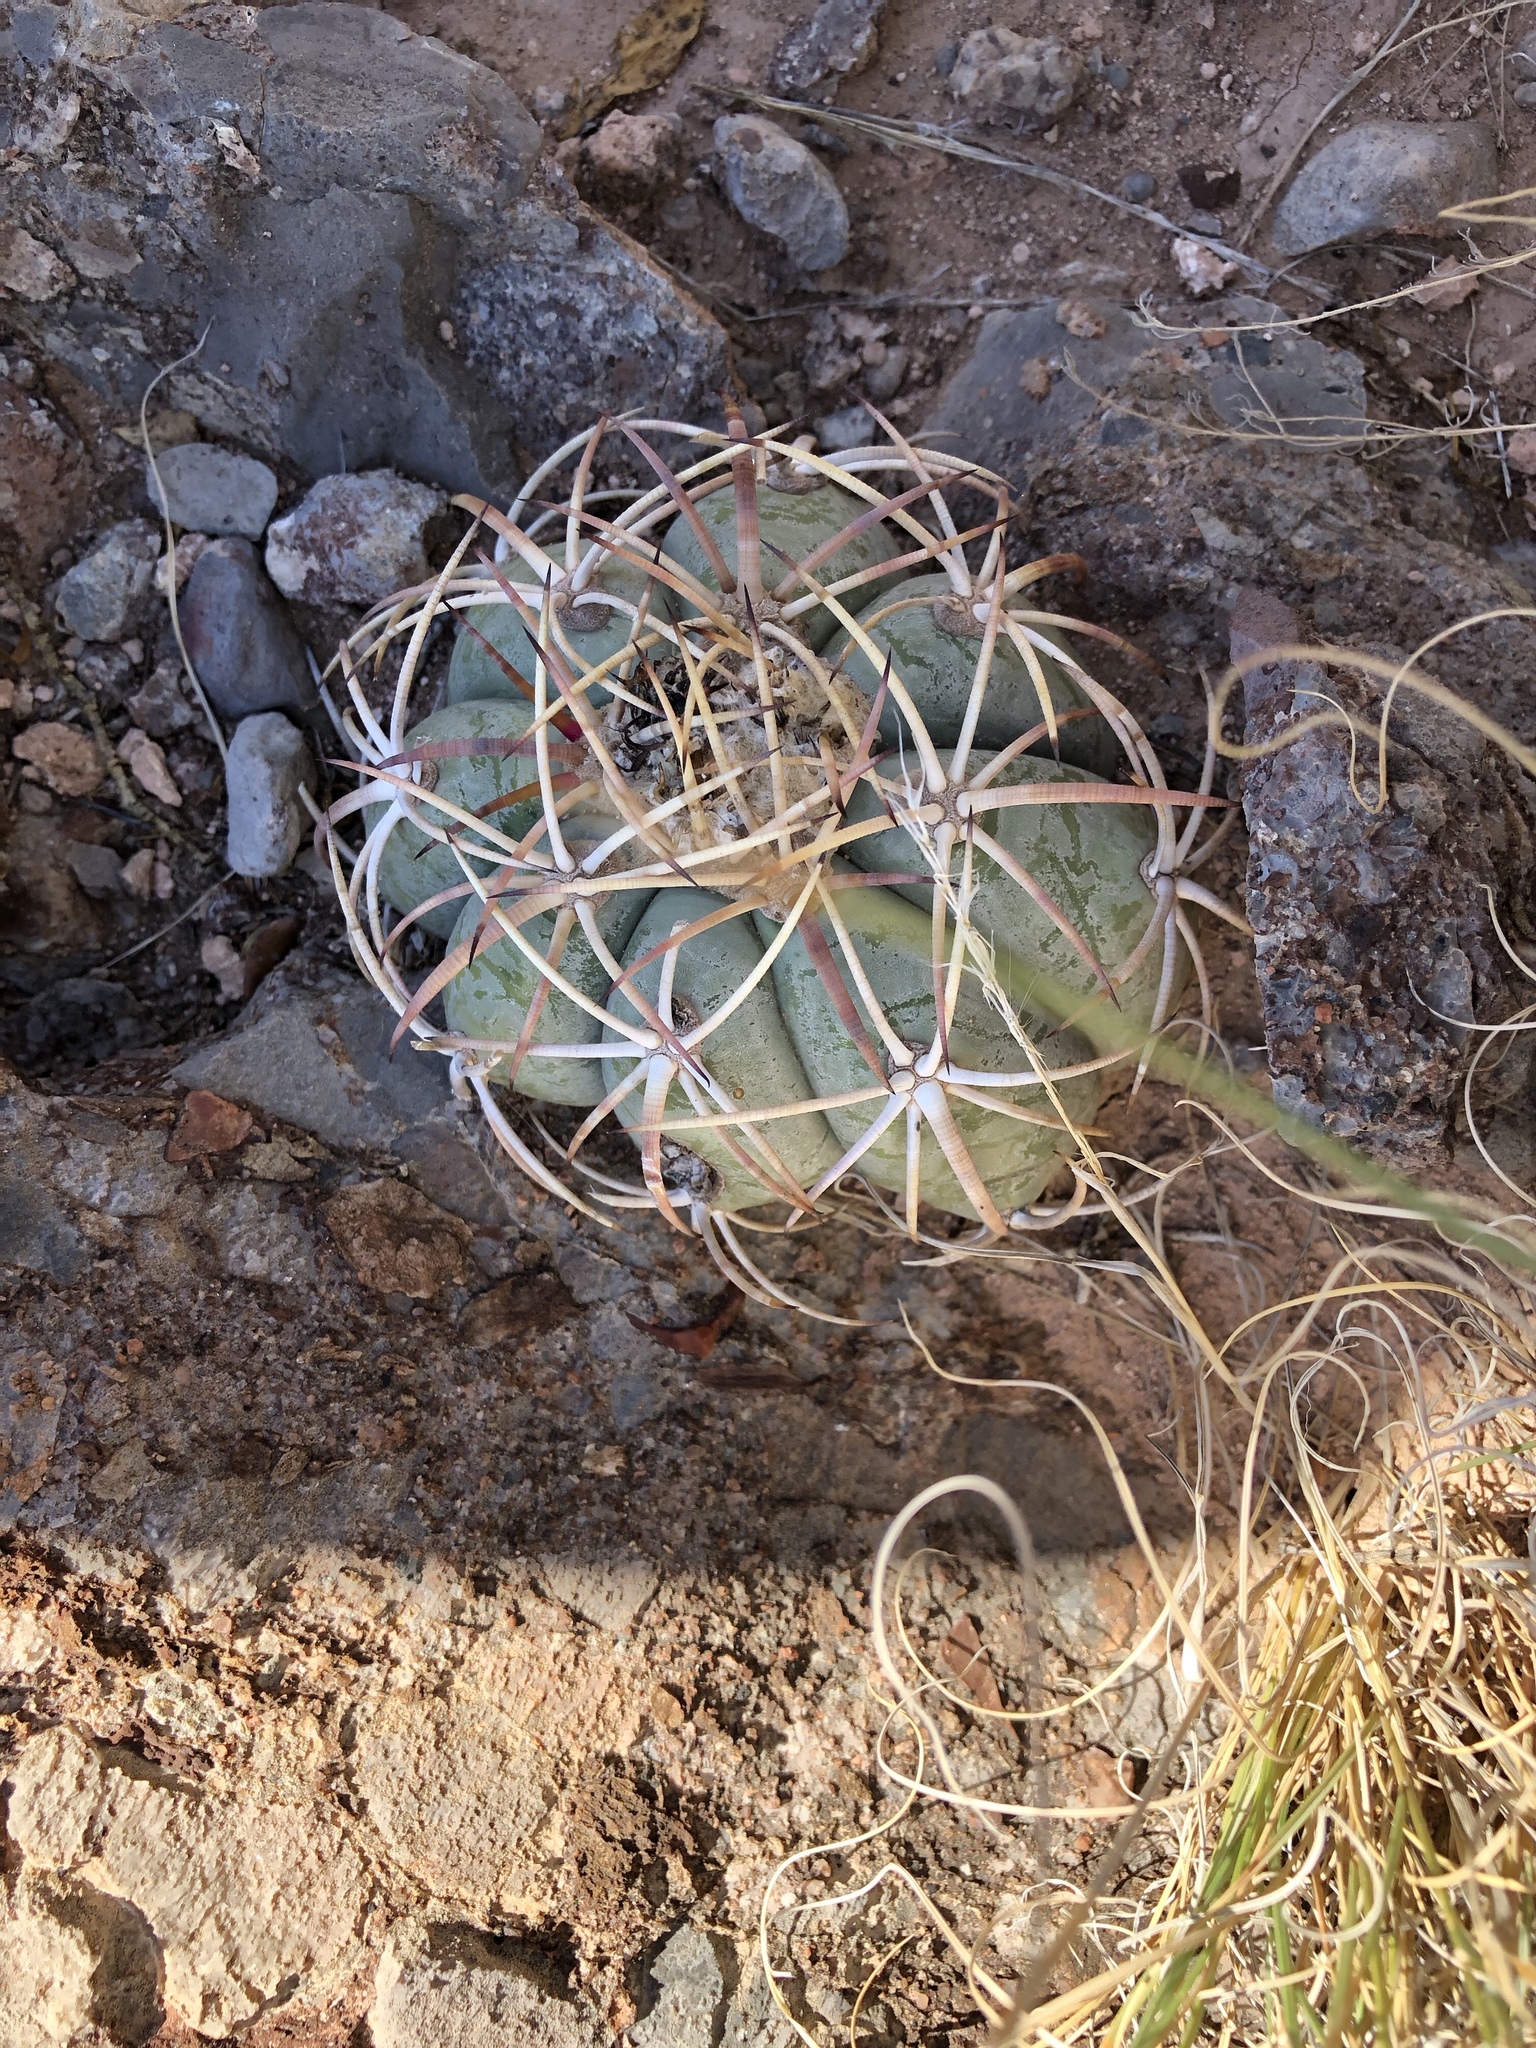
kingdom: Plantae
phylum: Tracheophyta
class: Magnoliopsida
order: Caryophyllales
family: Cactaceae
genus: Echinocactus
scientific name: Echinocactus horizonthalonius
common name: Devilshead
